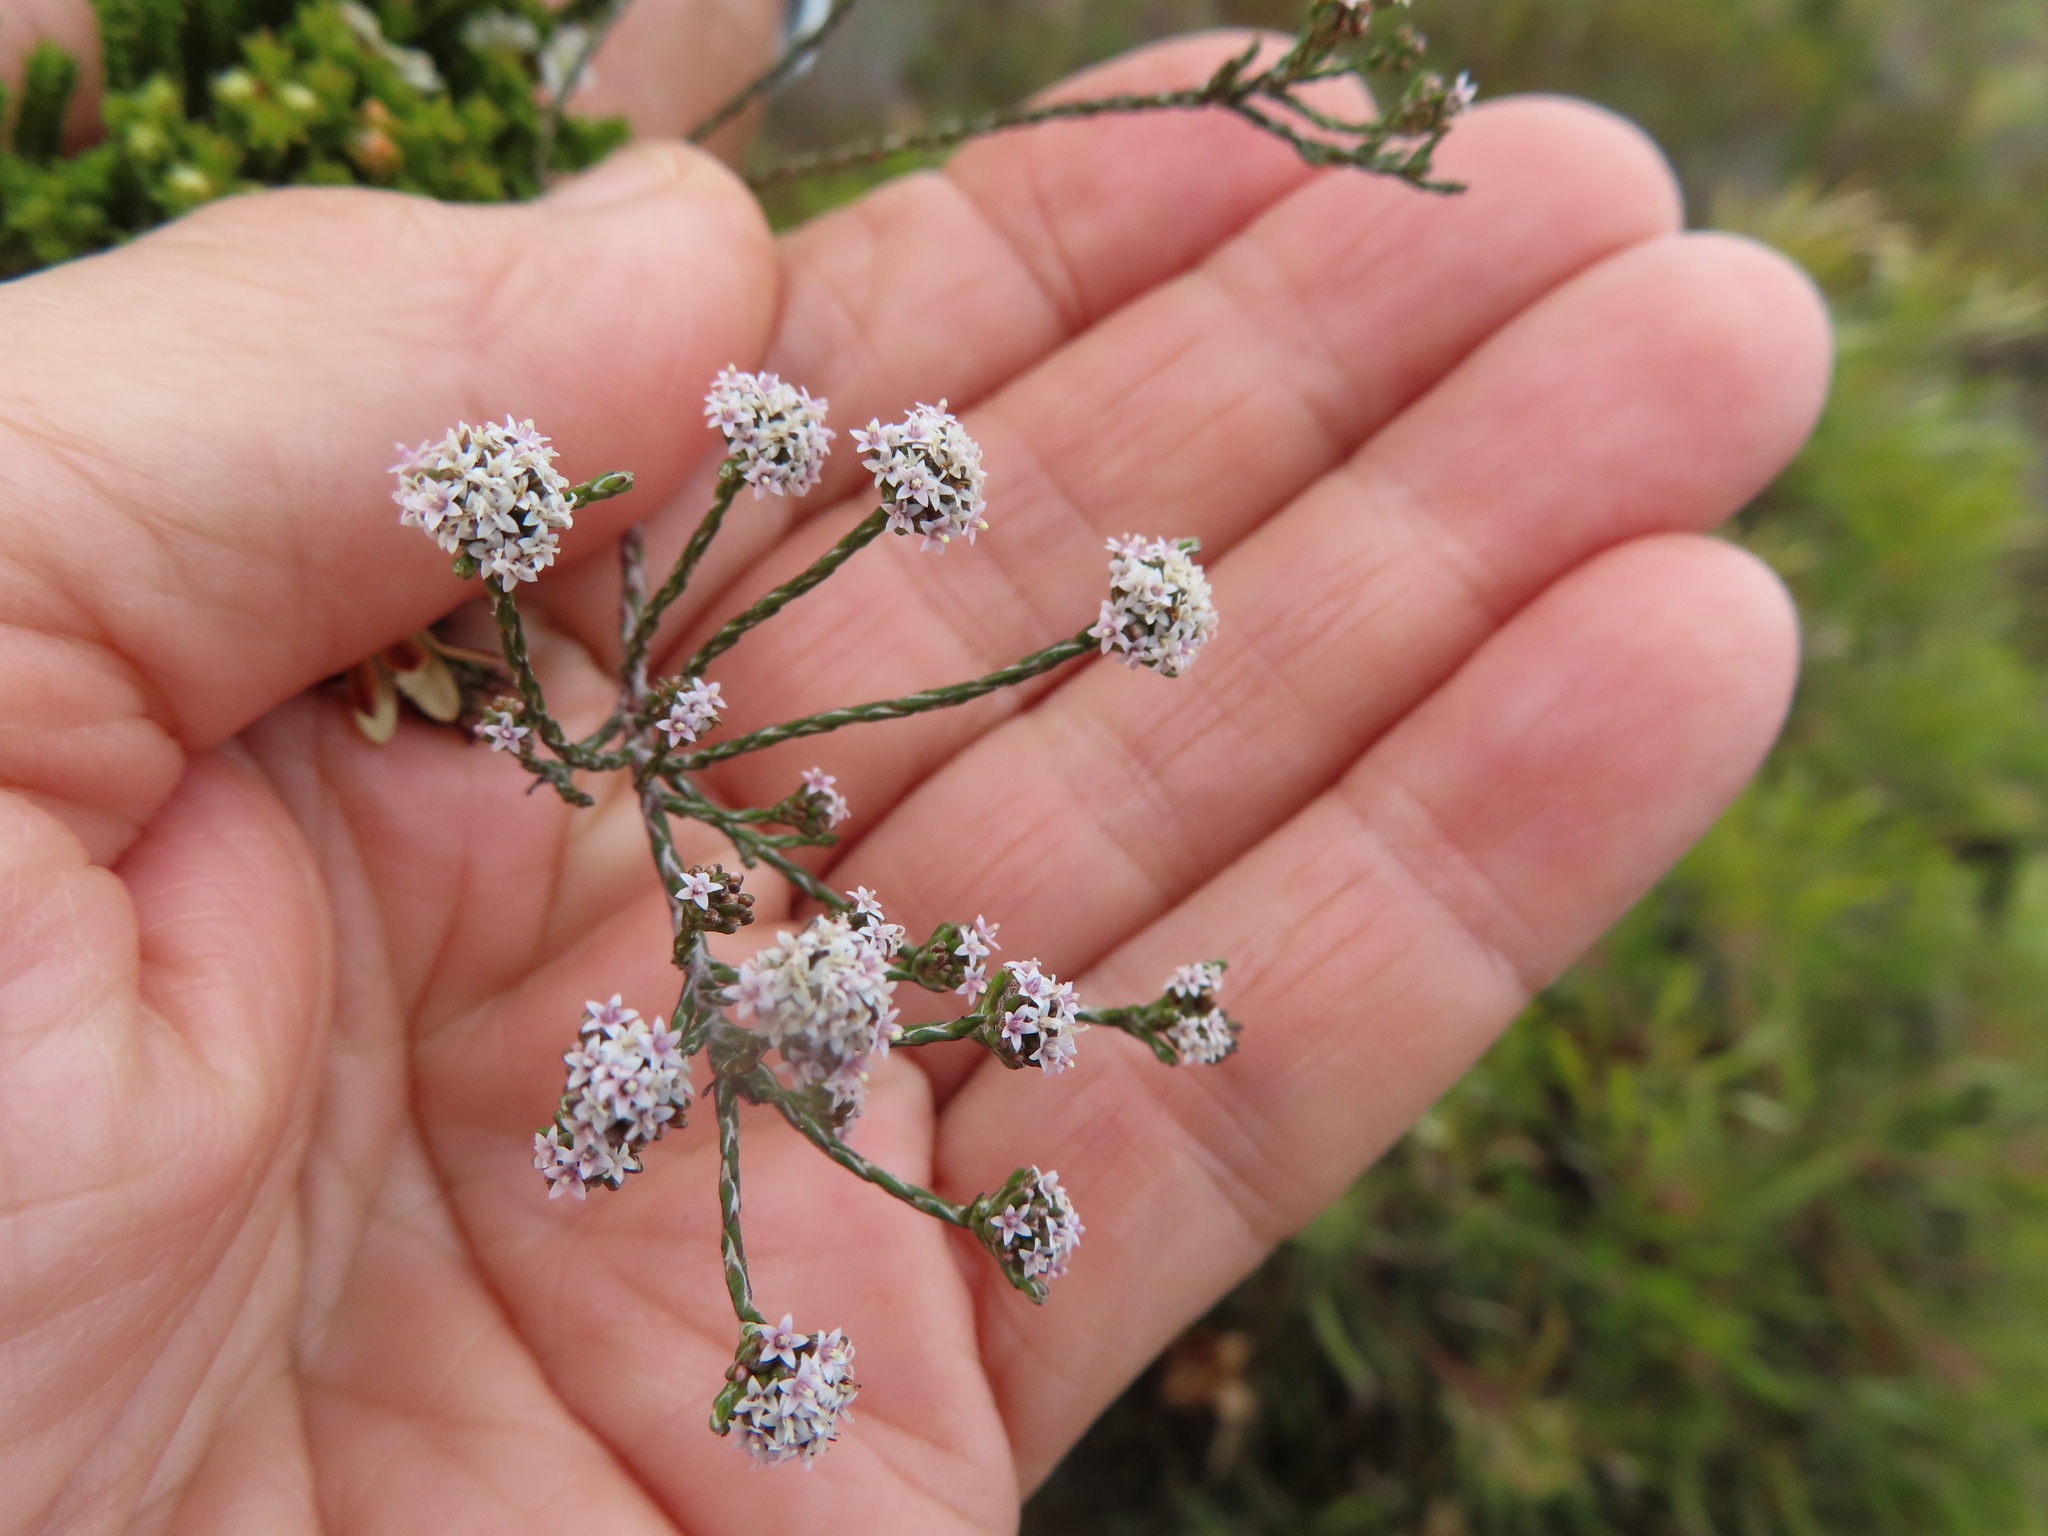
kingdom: Plantae
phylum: Tracheophyta
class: Magnoliopsida
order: Asterales
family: Asteraceae
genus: Stoebe
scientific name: Stoebe schultzii
